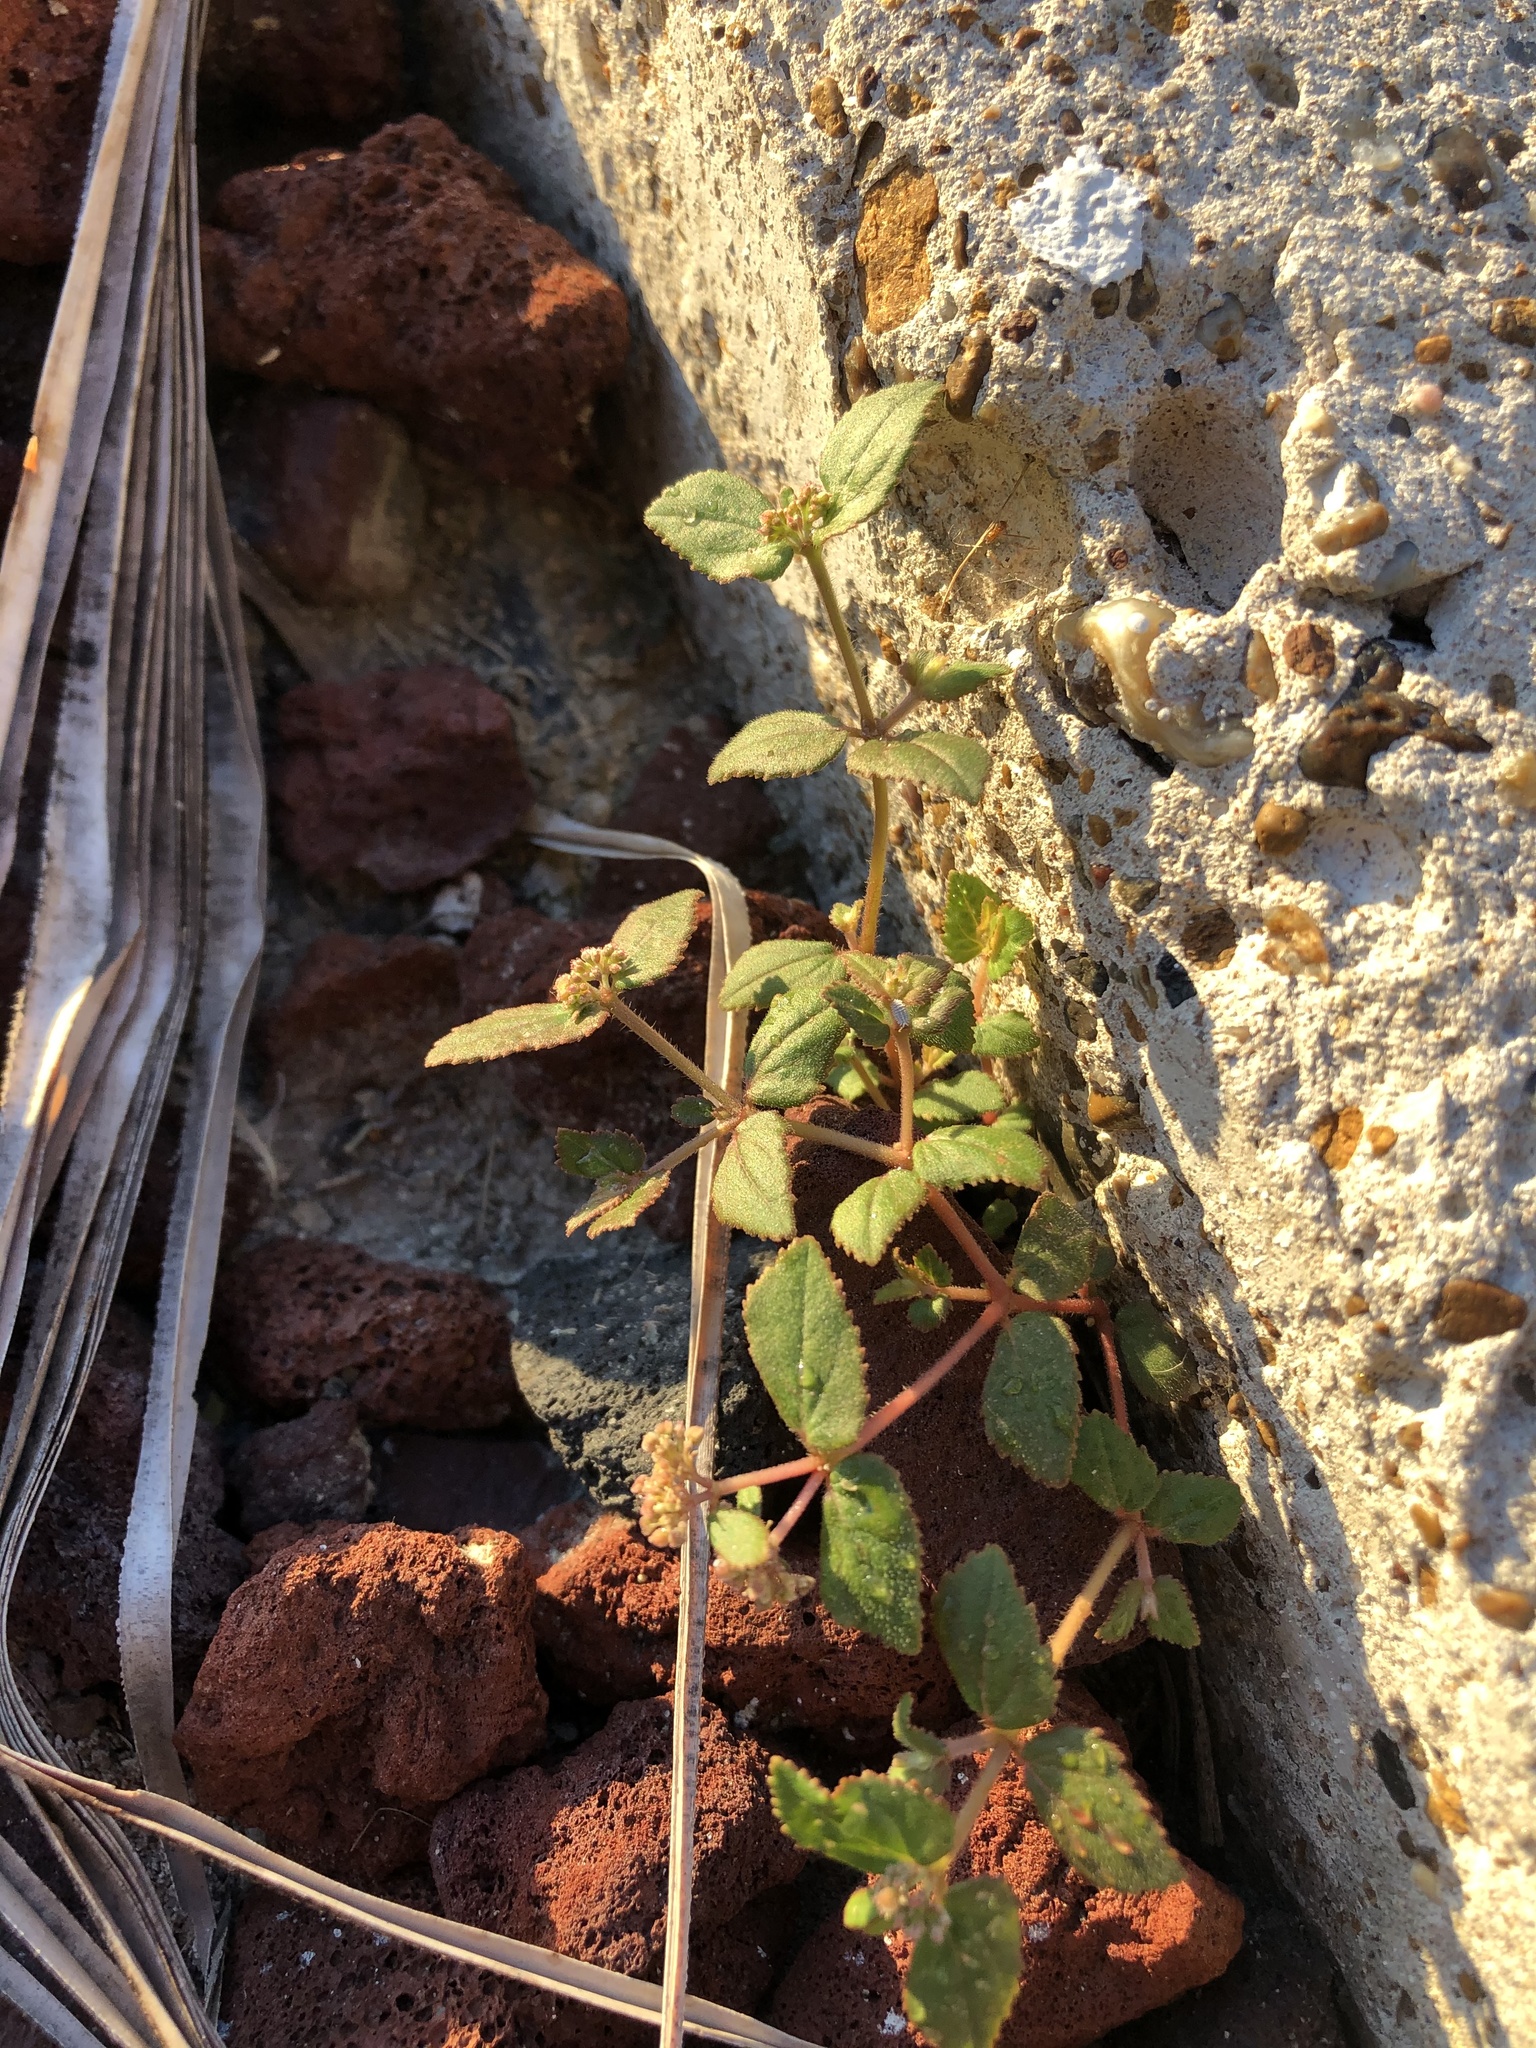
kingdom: Plantae
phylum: Tracheophyta
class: Magnoliopsida
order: Malpighiales
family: Euphorbiaceae
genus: Euphorbia
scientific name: Euphorbia ophthalmica
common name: Florida hammock sandmat
